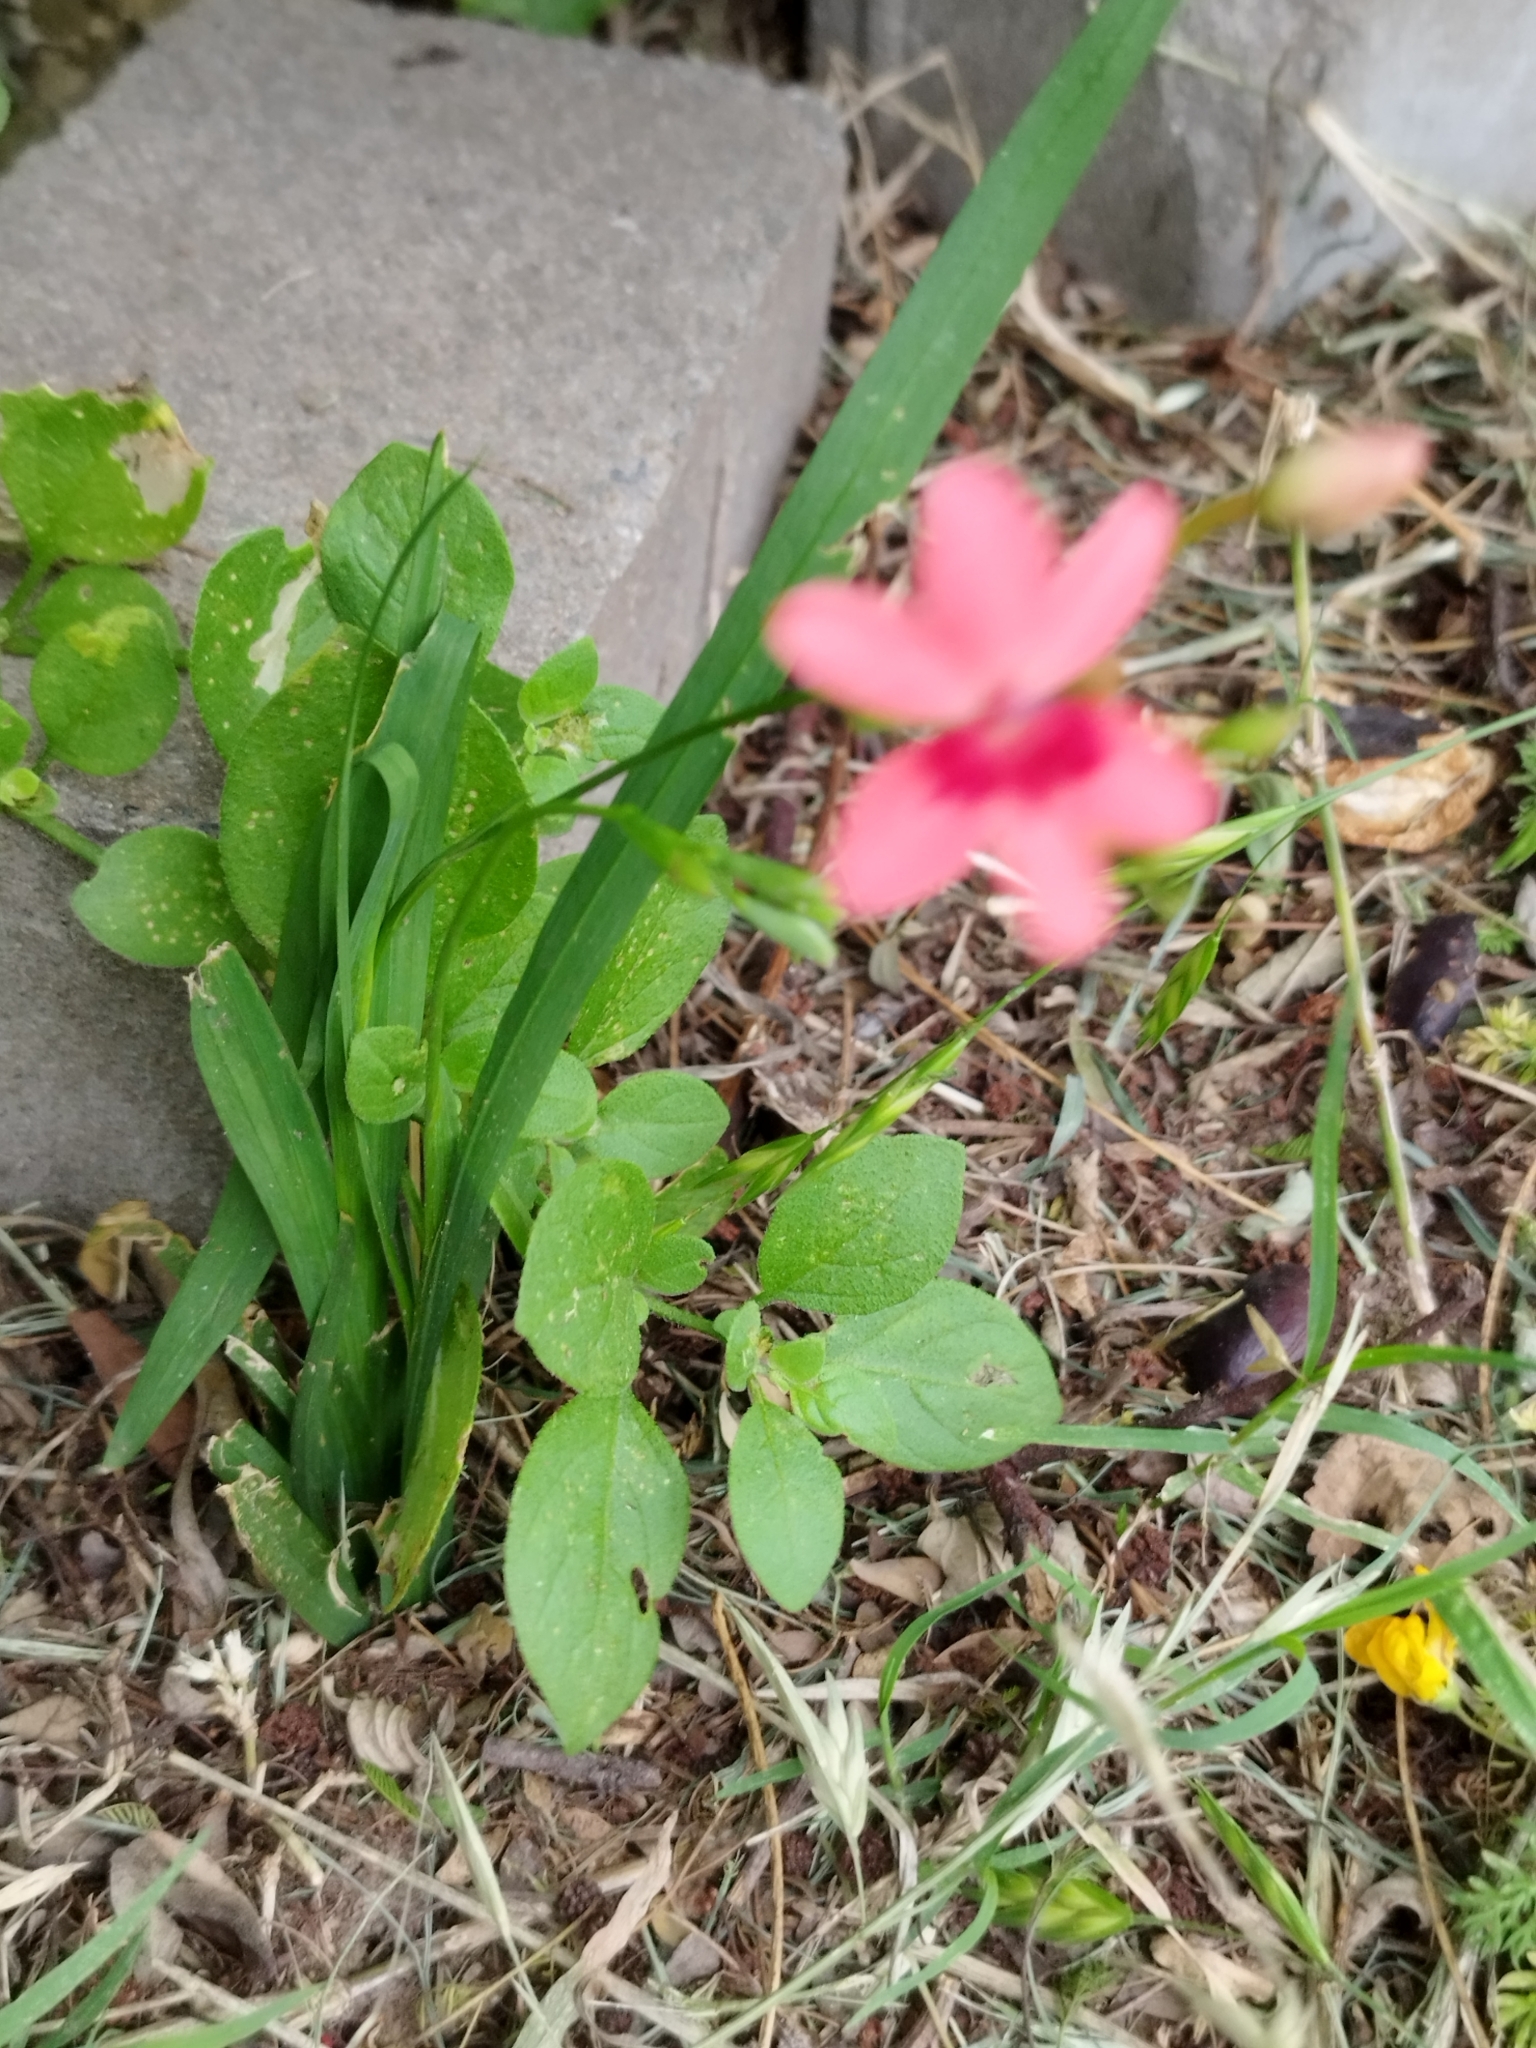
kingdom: Plantae
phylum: Tracheophyta
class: Liliopsida
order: Asparagales
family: Iridaceae
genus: Freesia
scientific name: Freesia laxa
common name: False freesia
